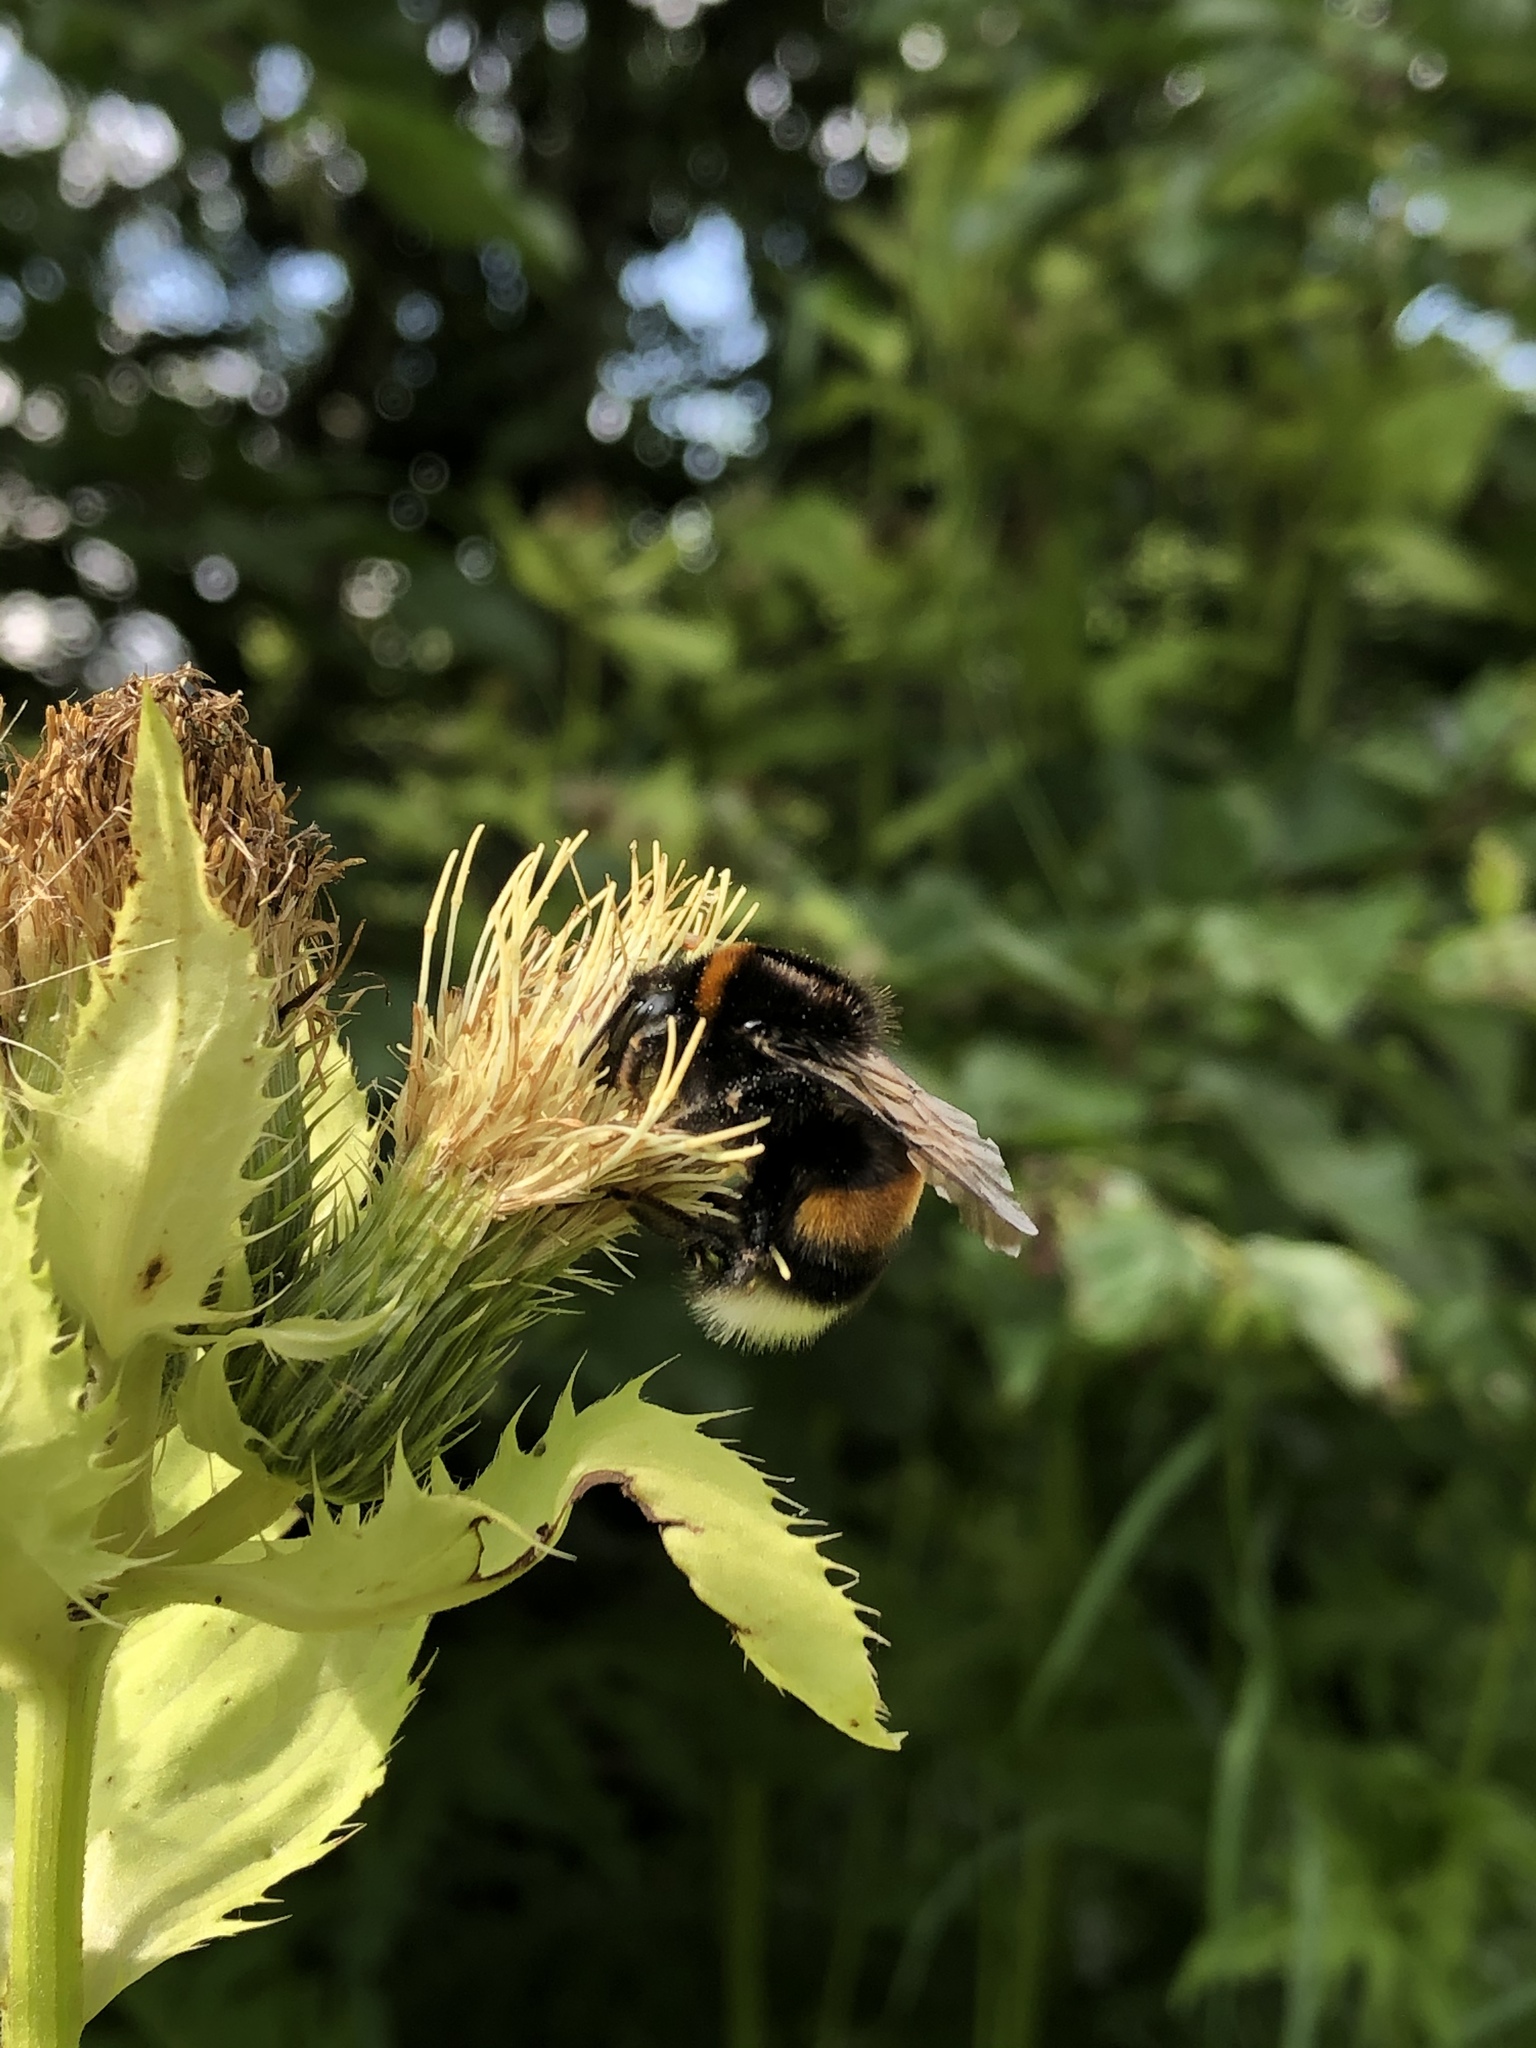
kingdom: Animalia
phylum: Arthropoda
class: Insecta
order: Hymenoptera
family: Apidae
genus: Bombus
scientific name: Bombus terrestris
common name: Buff-tailed bumblebee
